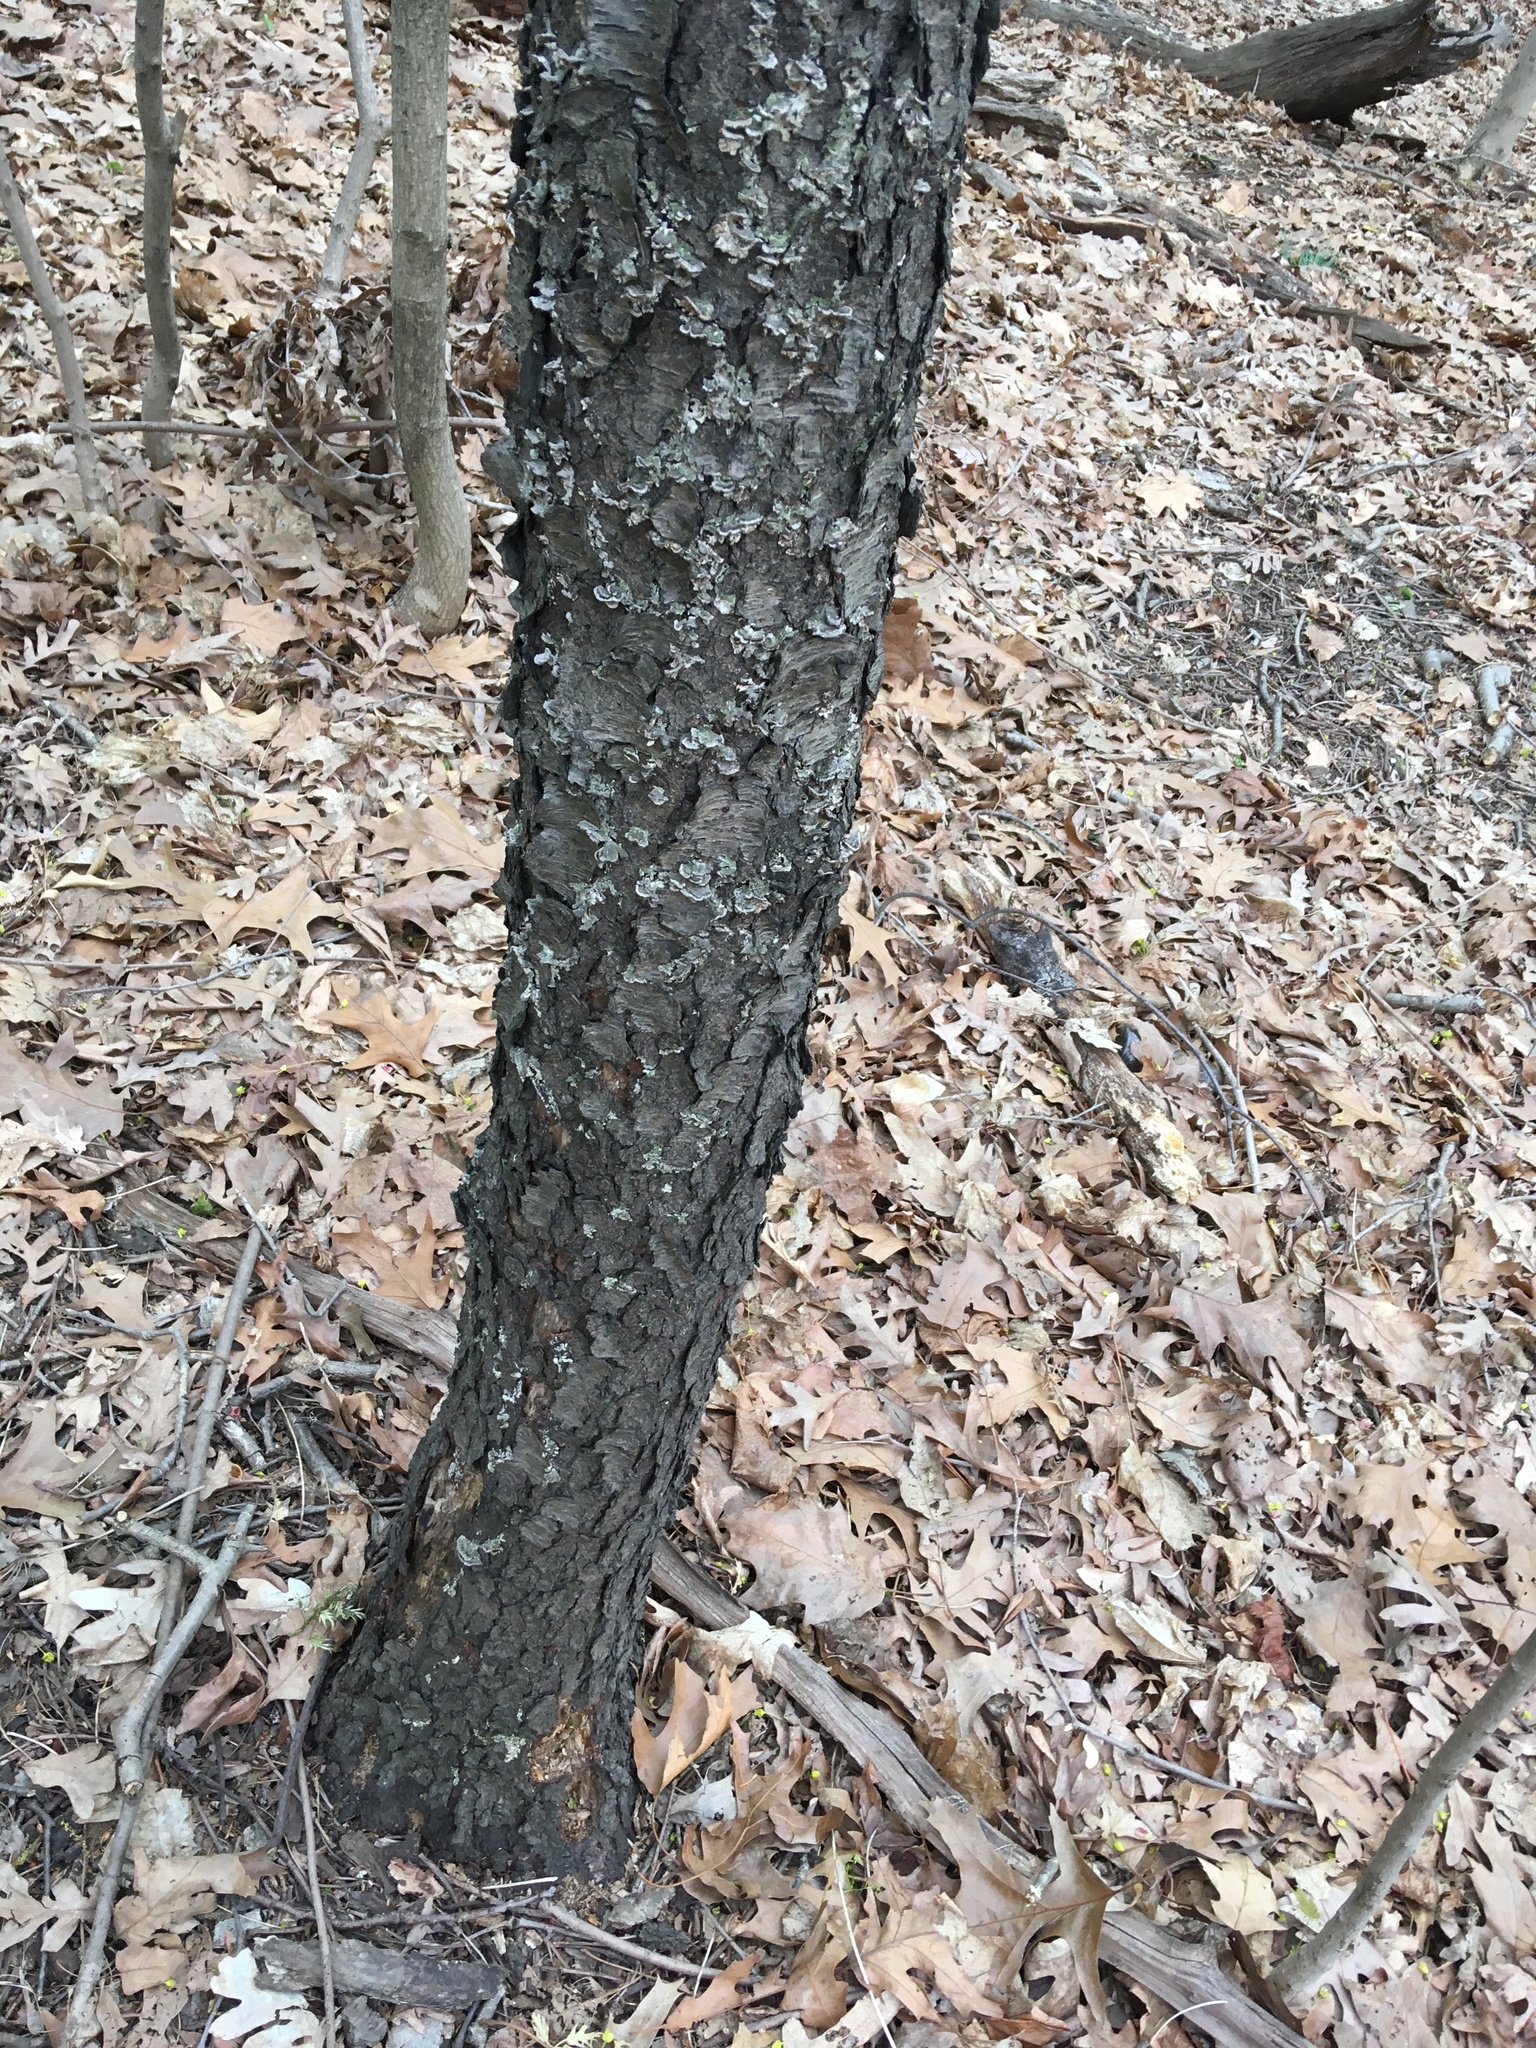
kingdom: Plantae
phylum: Tracheophyta
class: Magnoliopsida
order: Rosales
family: Rosaceae
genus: Prunus
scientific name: Prunus serotina
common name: Black cherry
